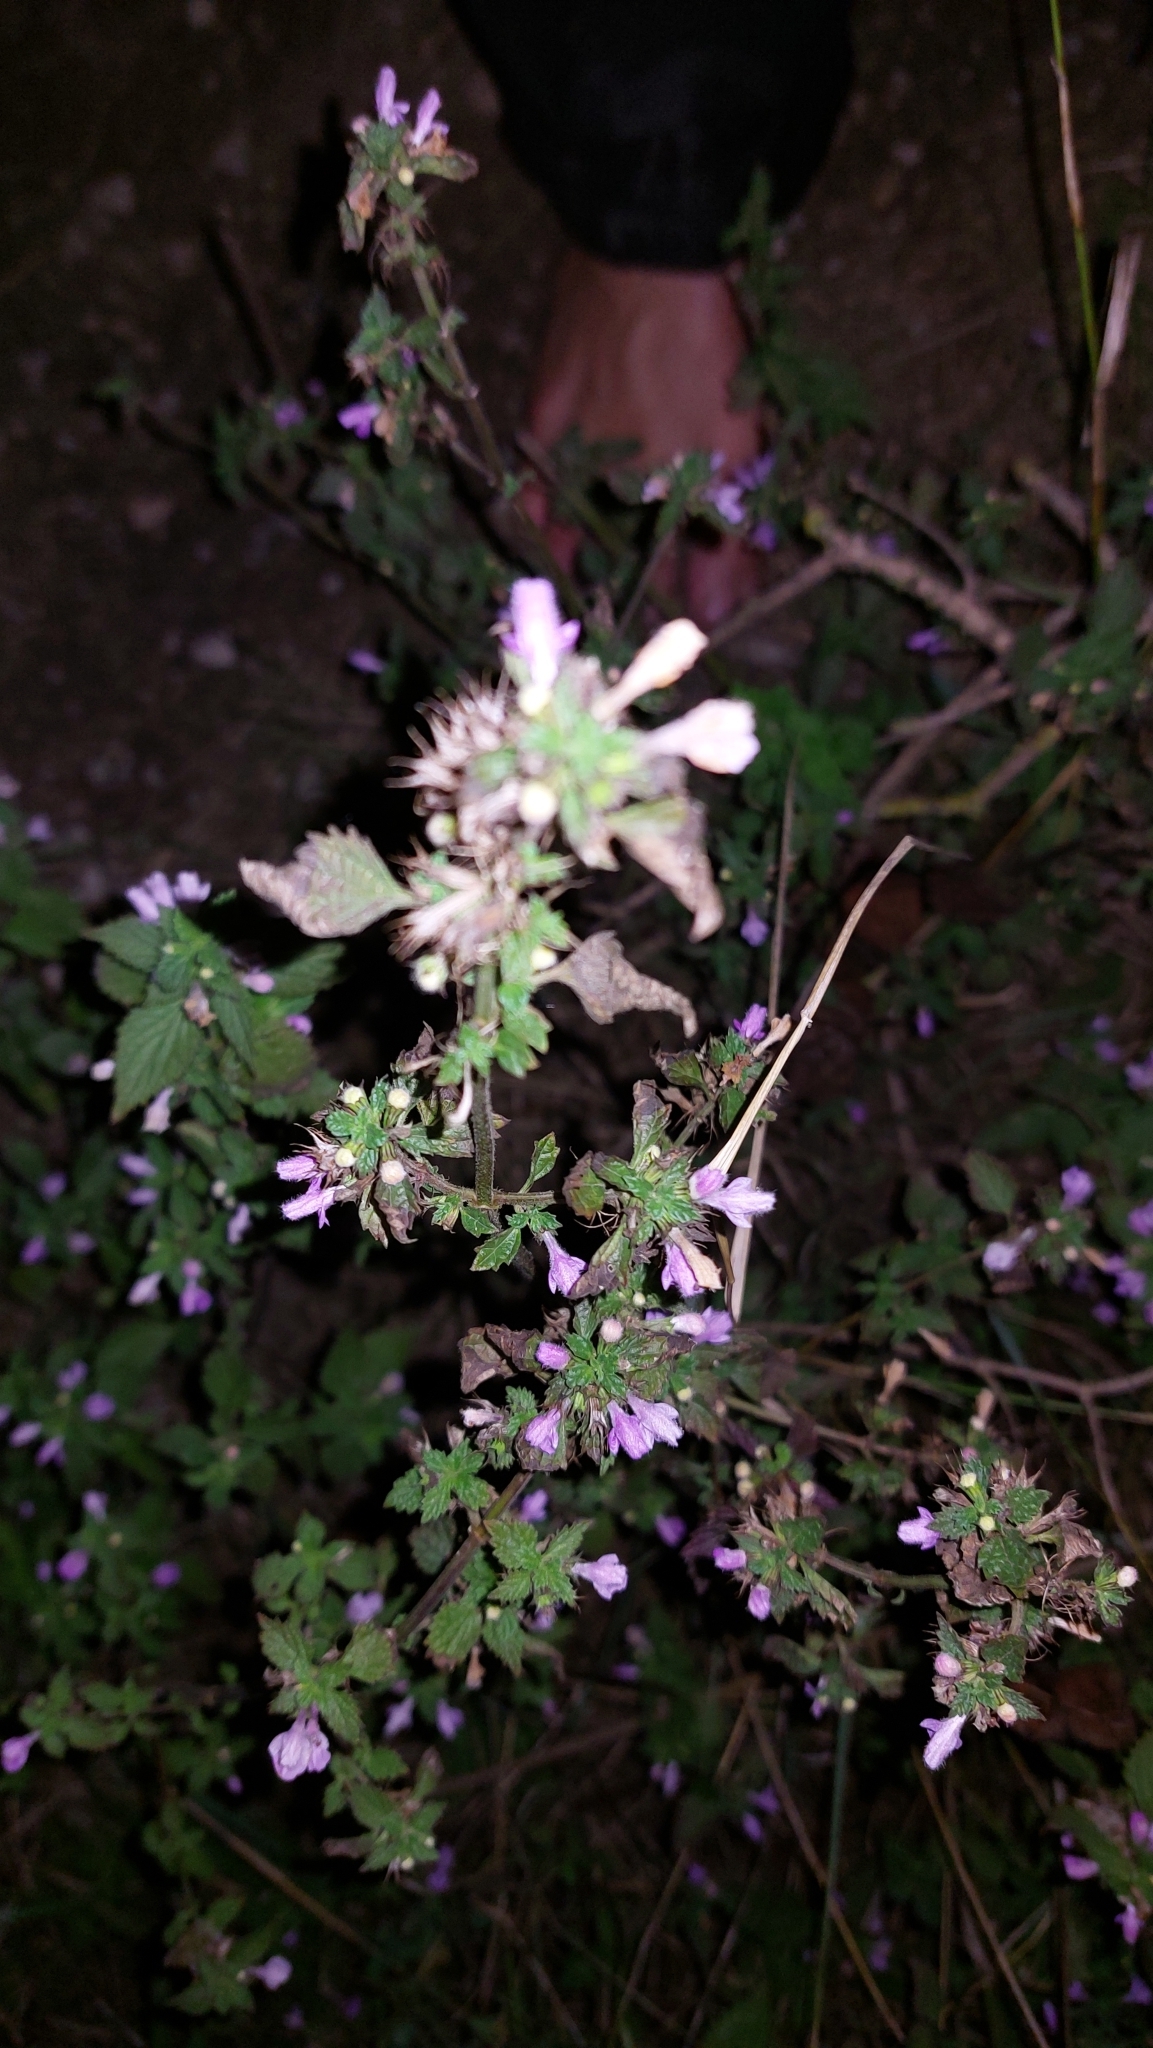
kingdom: Plantae
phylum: Tracheophyta
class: Magnoliopsida
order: Lamiales
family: Lamiaceae
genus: Ballota
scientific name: Ballota nigra
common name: Black horehound
